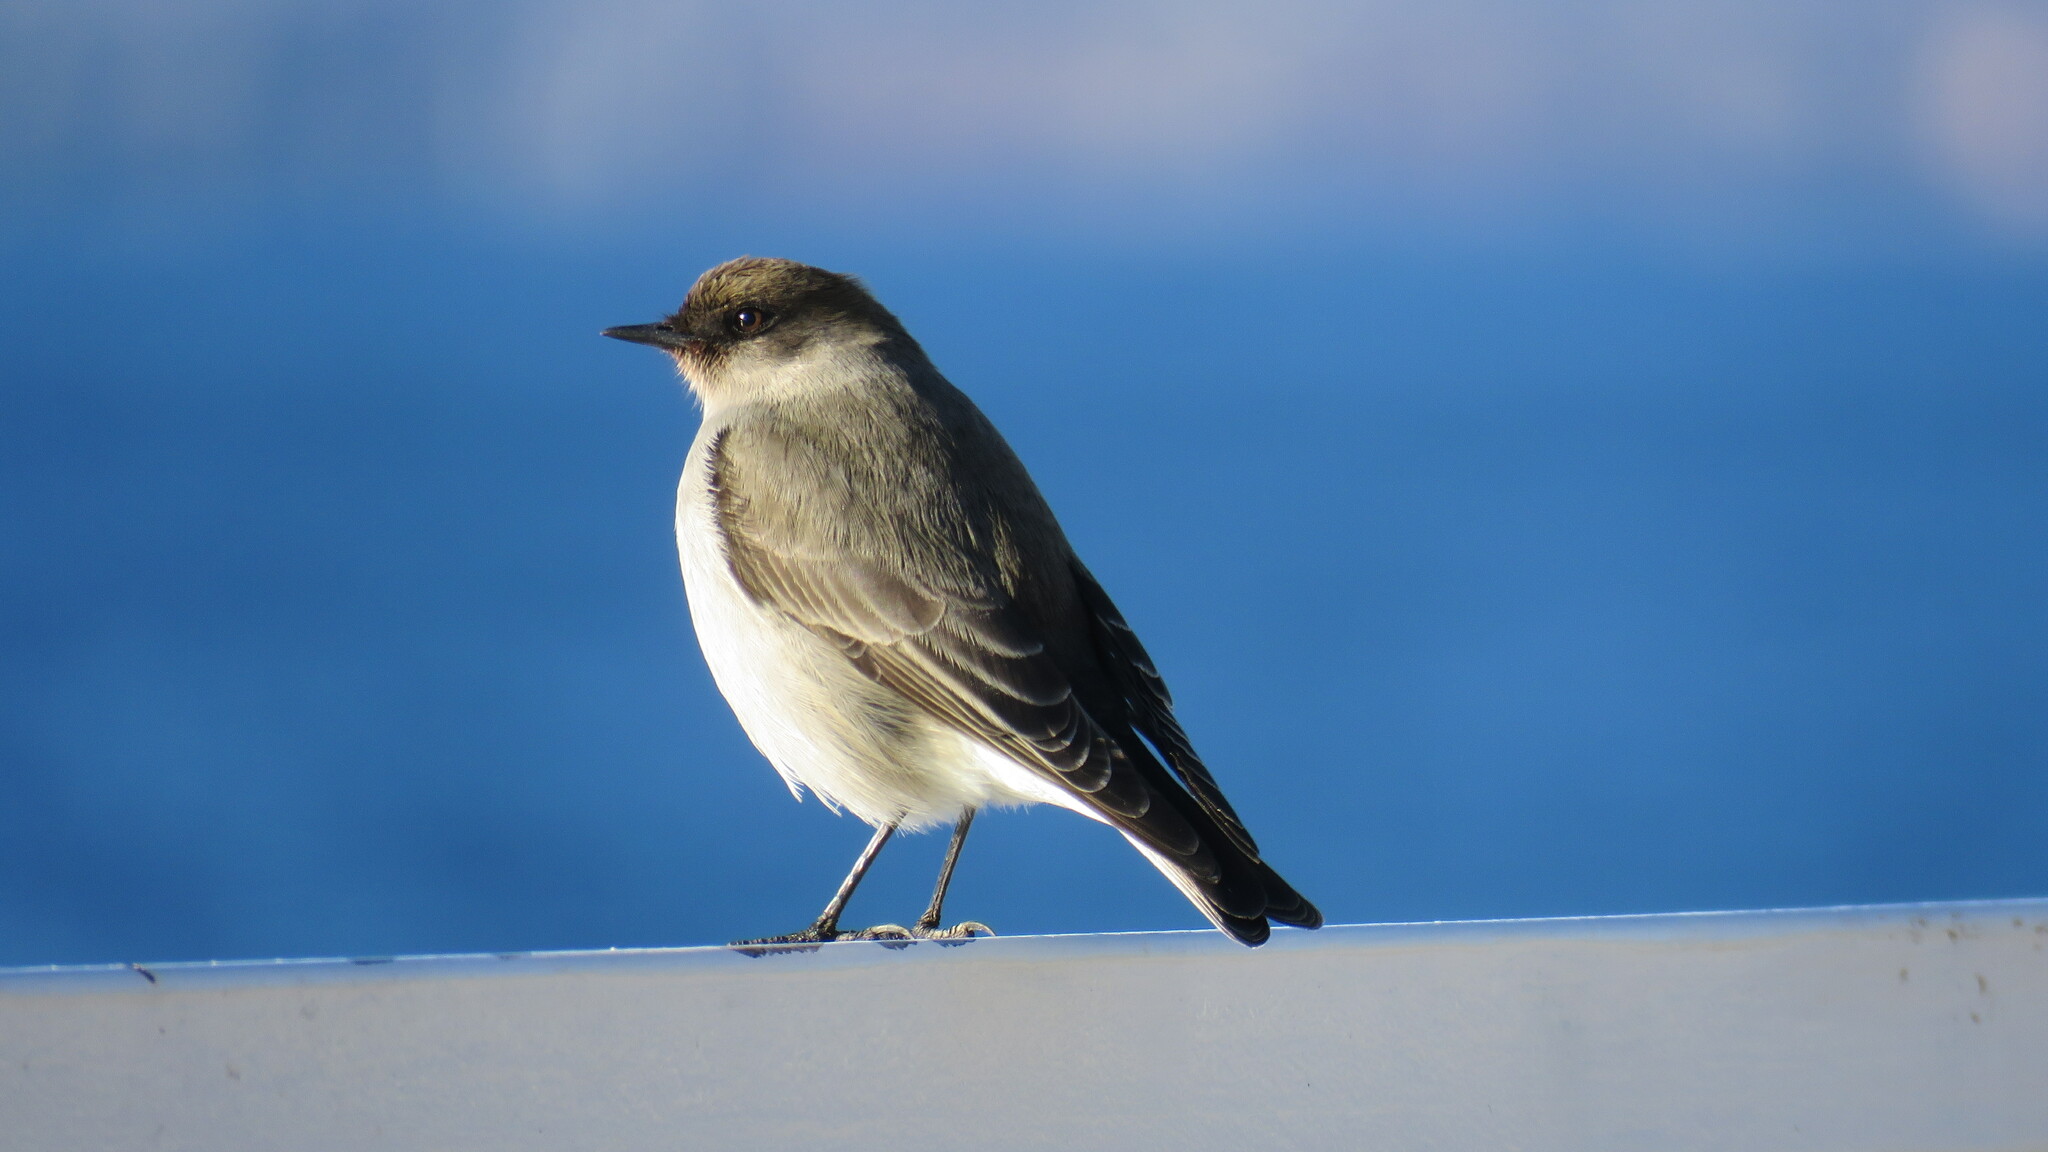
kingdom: Animalia
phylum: Chordata
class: Aves
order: Passeriformes
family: Tyrannidae
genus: Muscisaxicola
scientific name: Muscisaxicola maclovianus
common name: Dark-faced ground tyrant
